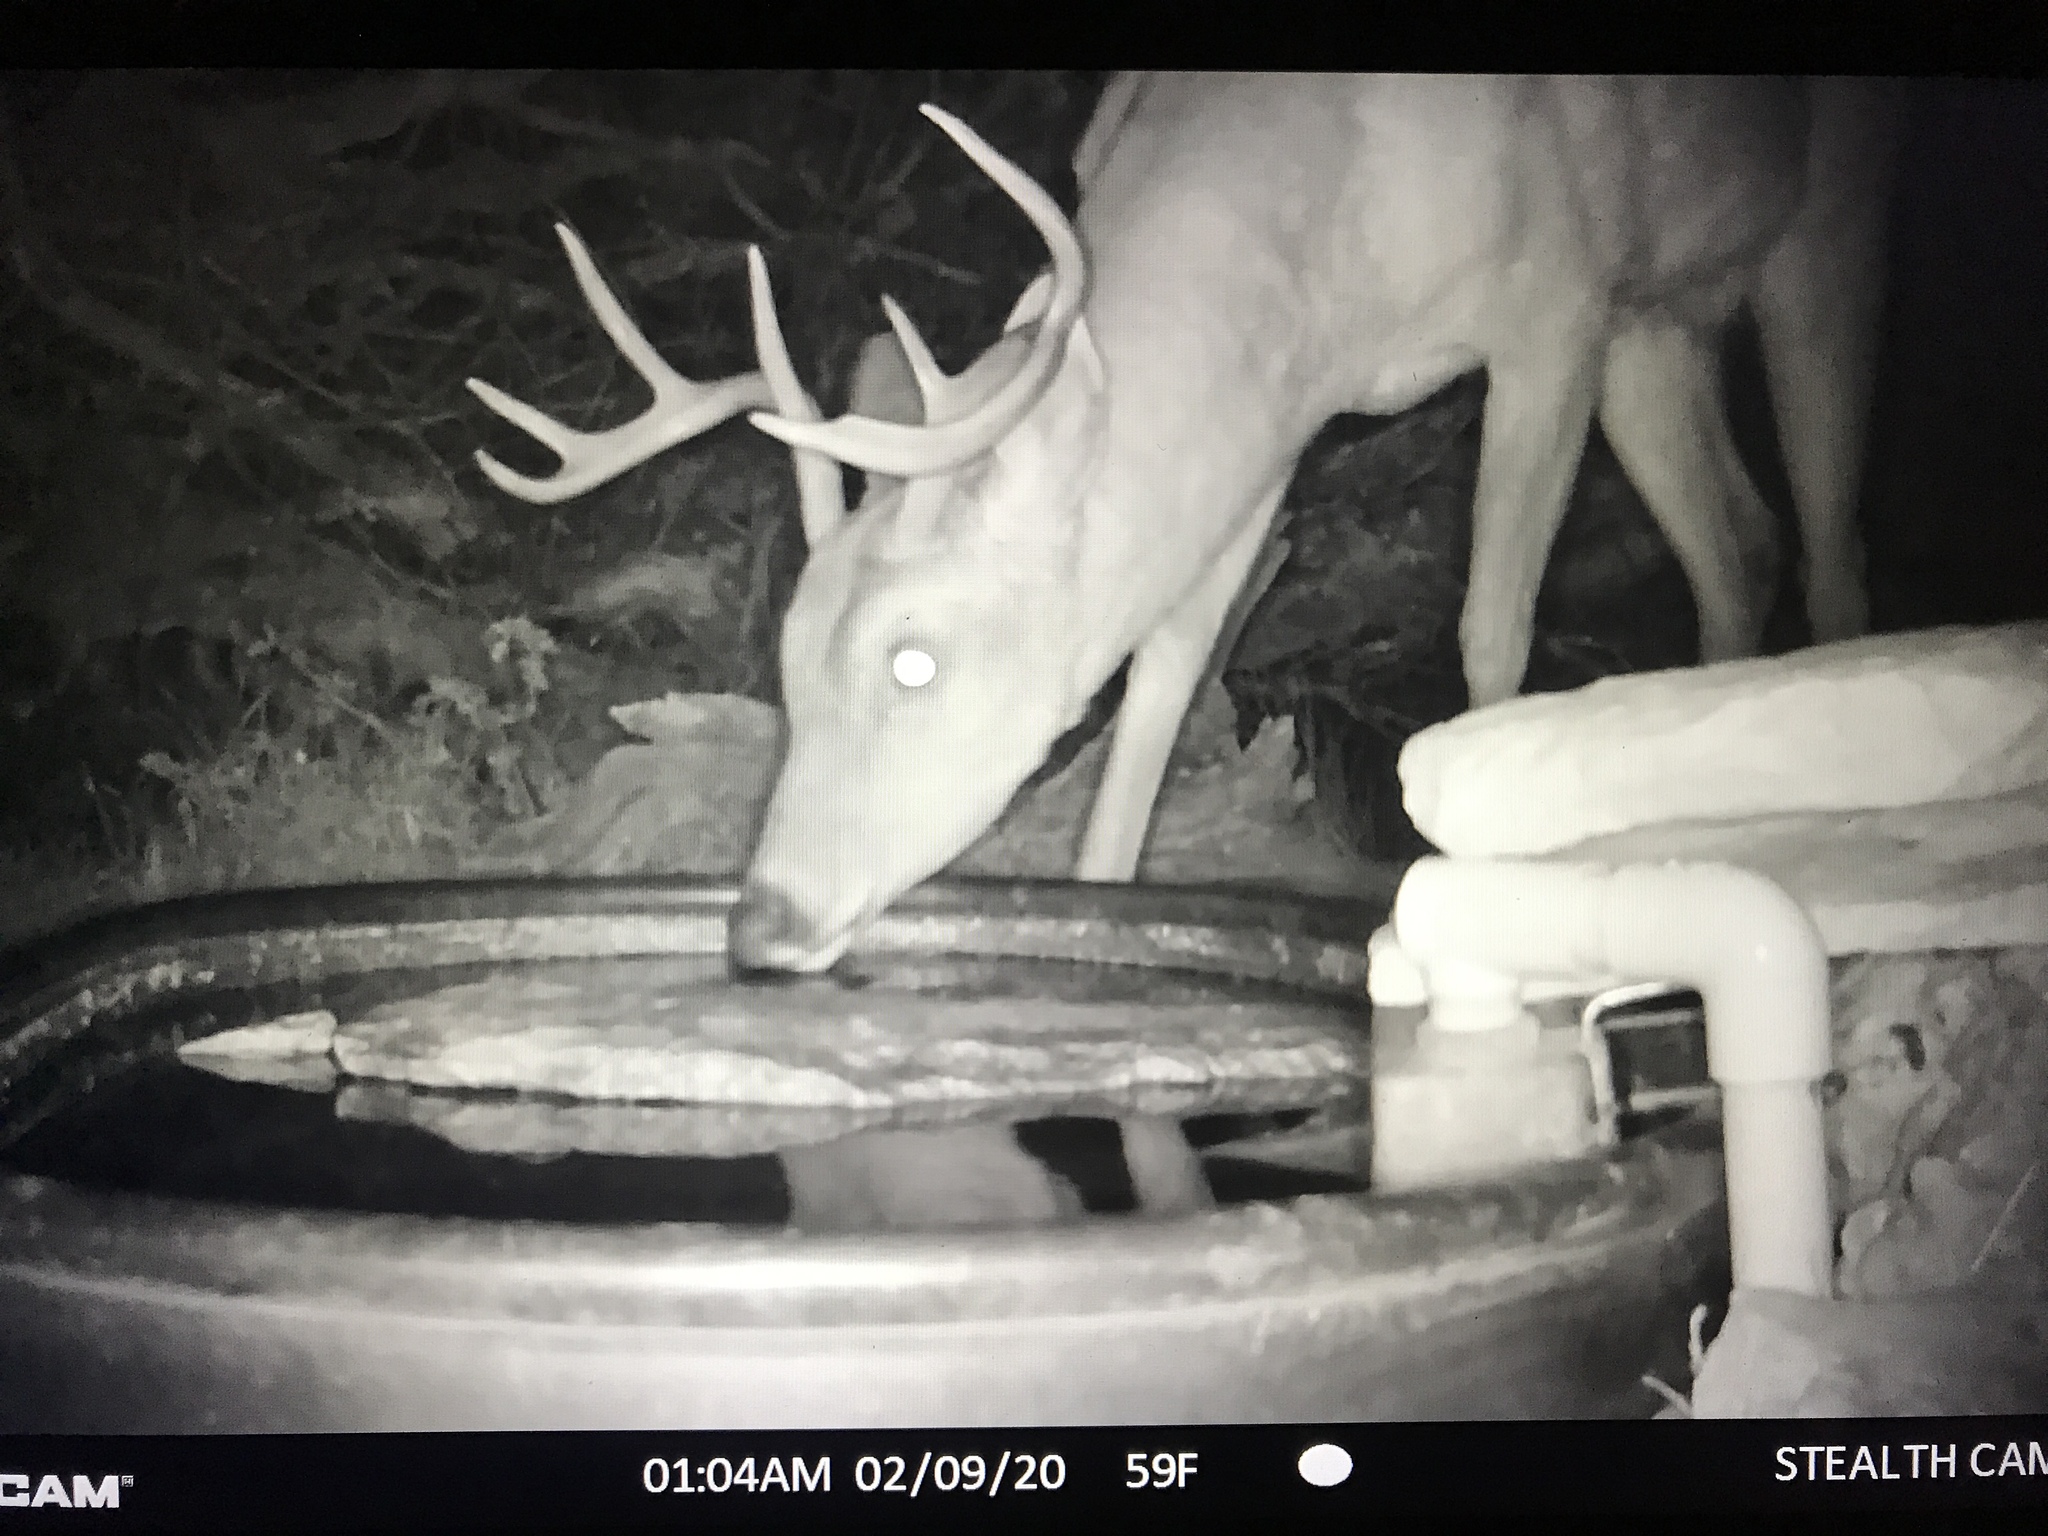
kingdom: Animalia
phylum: Chordata
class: Mammalia
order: Artiodactyla
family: Cervidae
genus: Odocoileus
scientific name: Odocoileus virginianus
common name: White-tailed deer
